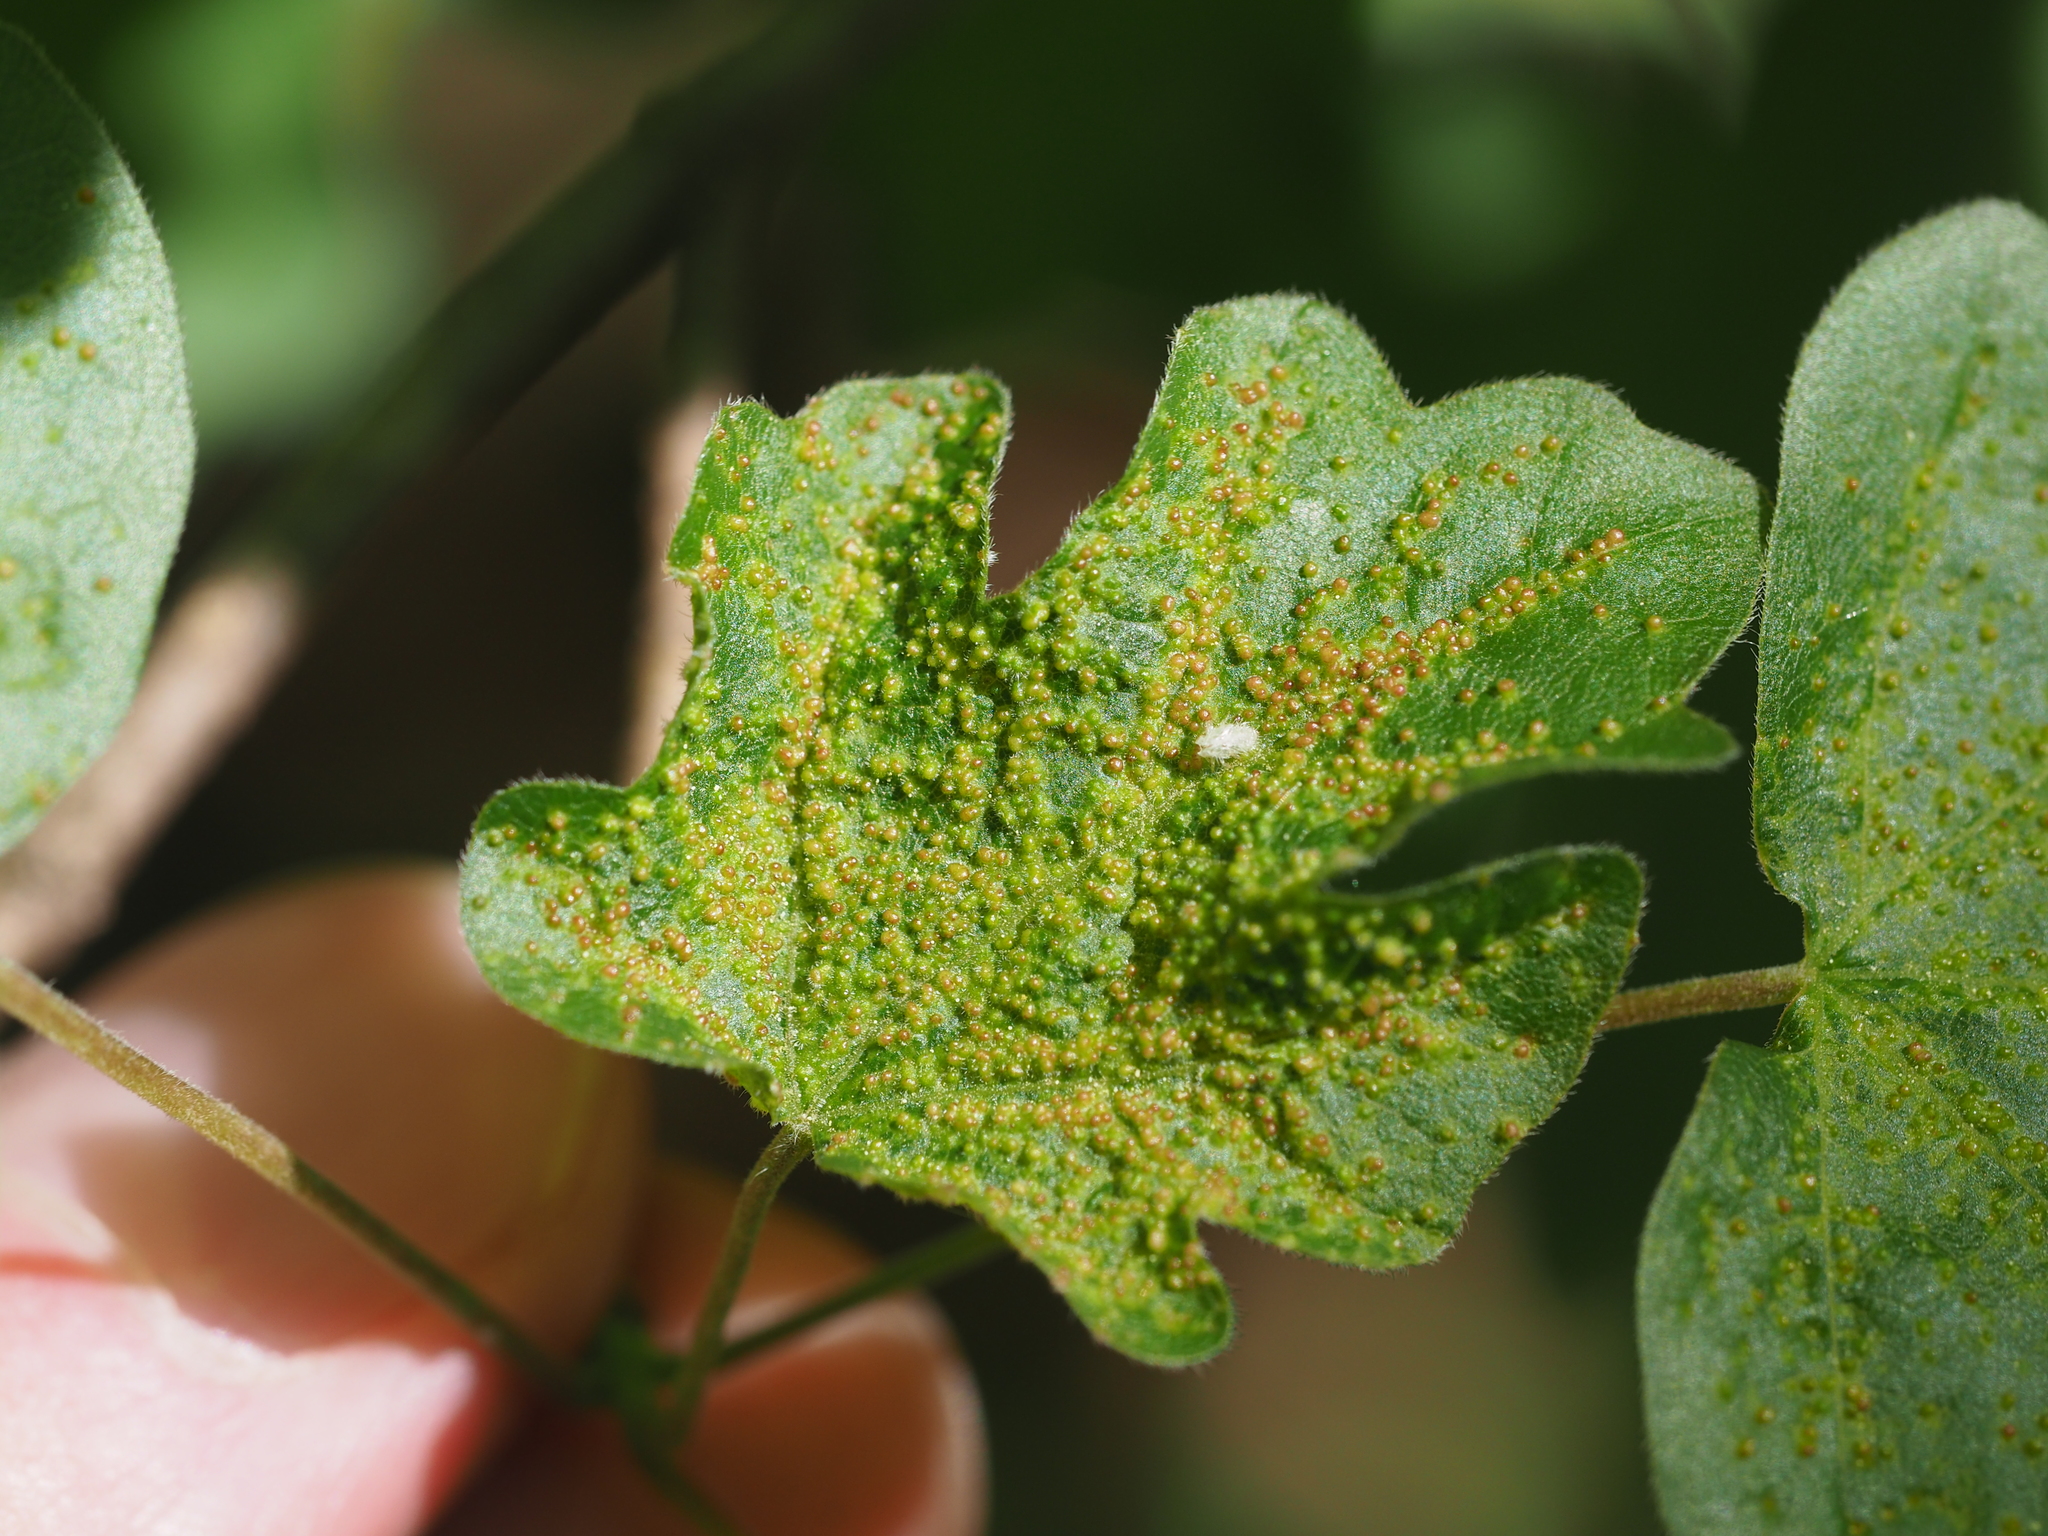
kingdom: Animalia
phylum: Arthropoda
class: Arachnida
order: Trombidiformes
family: Eriophyidae
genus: Aceria
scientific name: Aceria myriadeum
